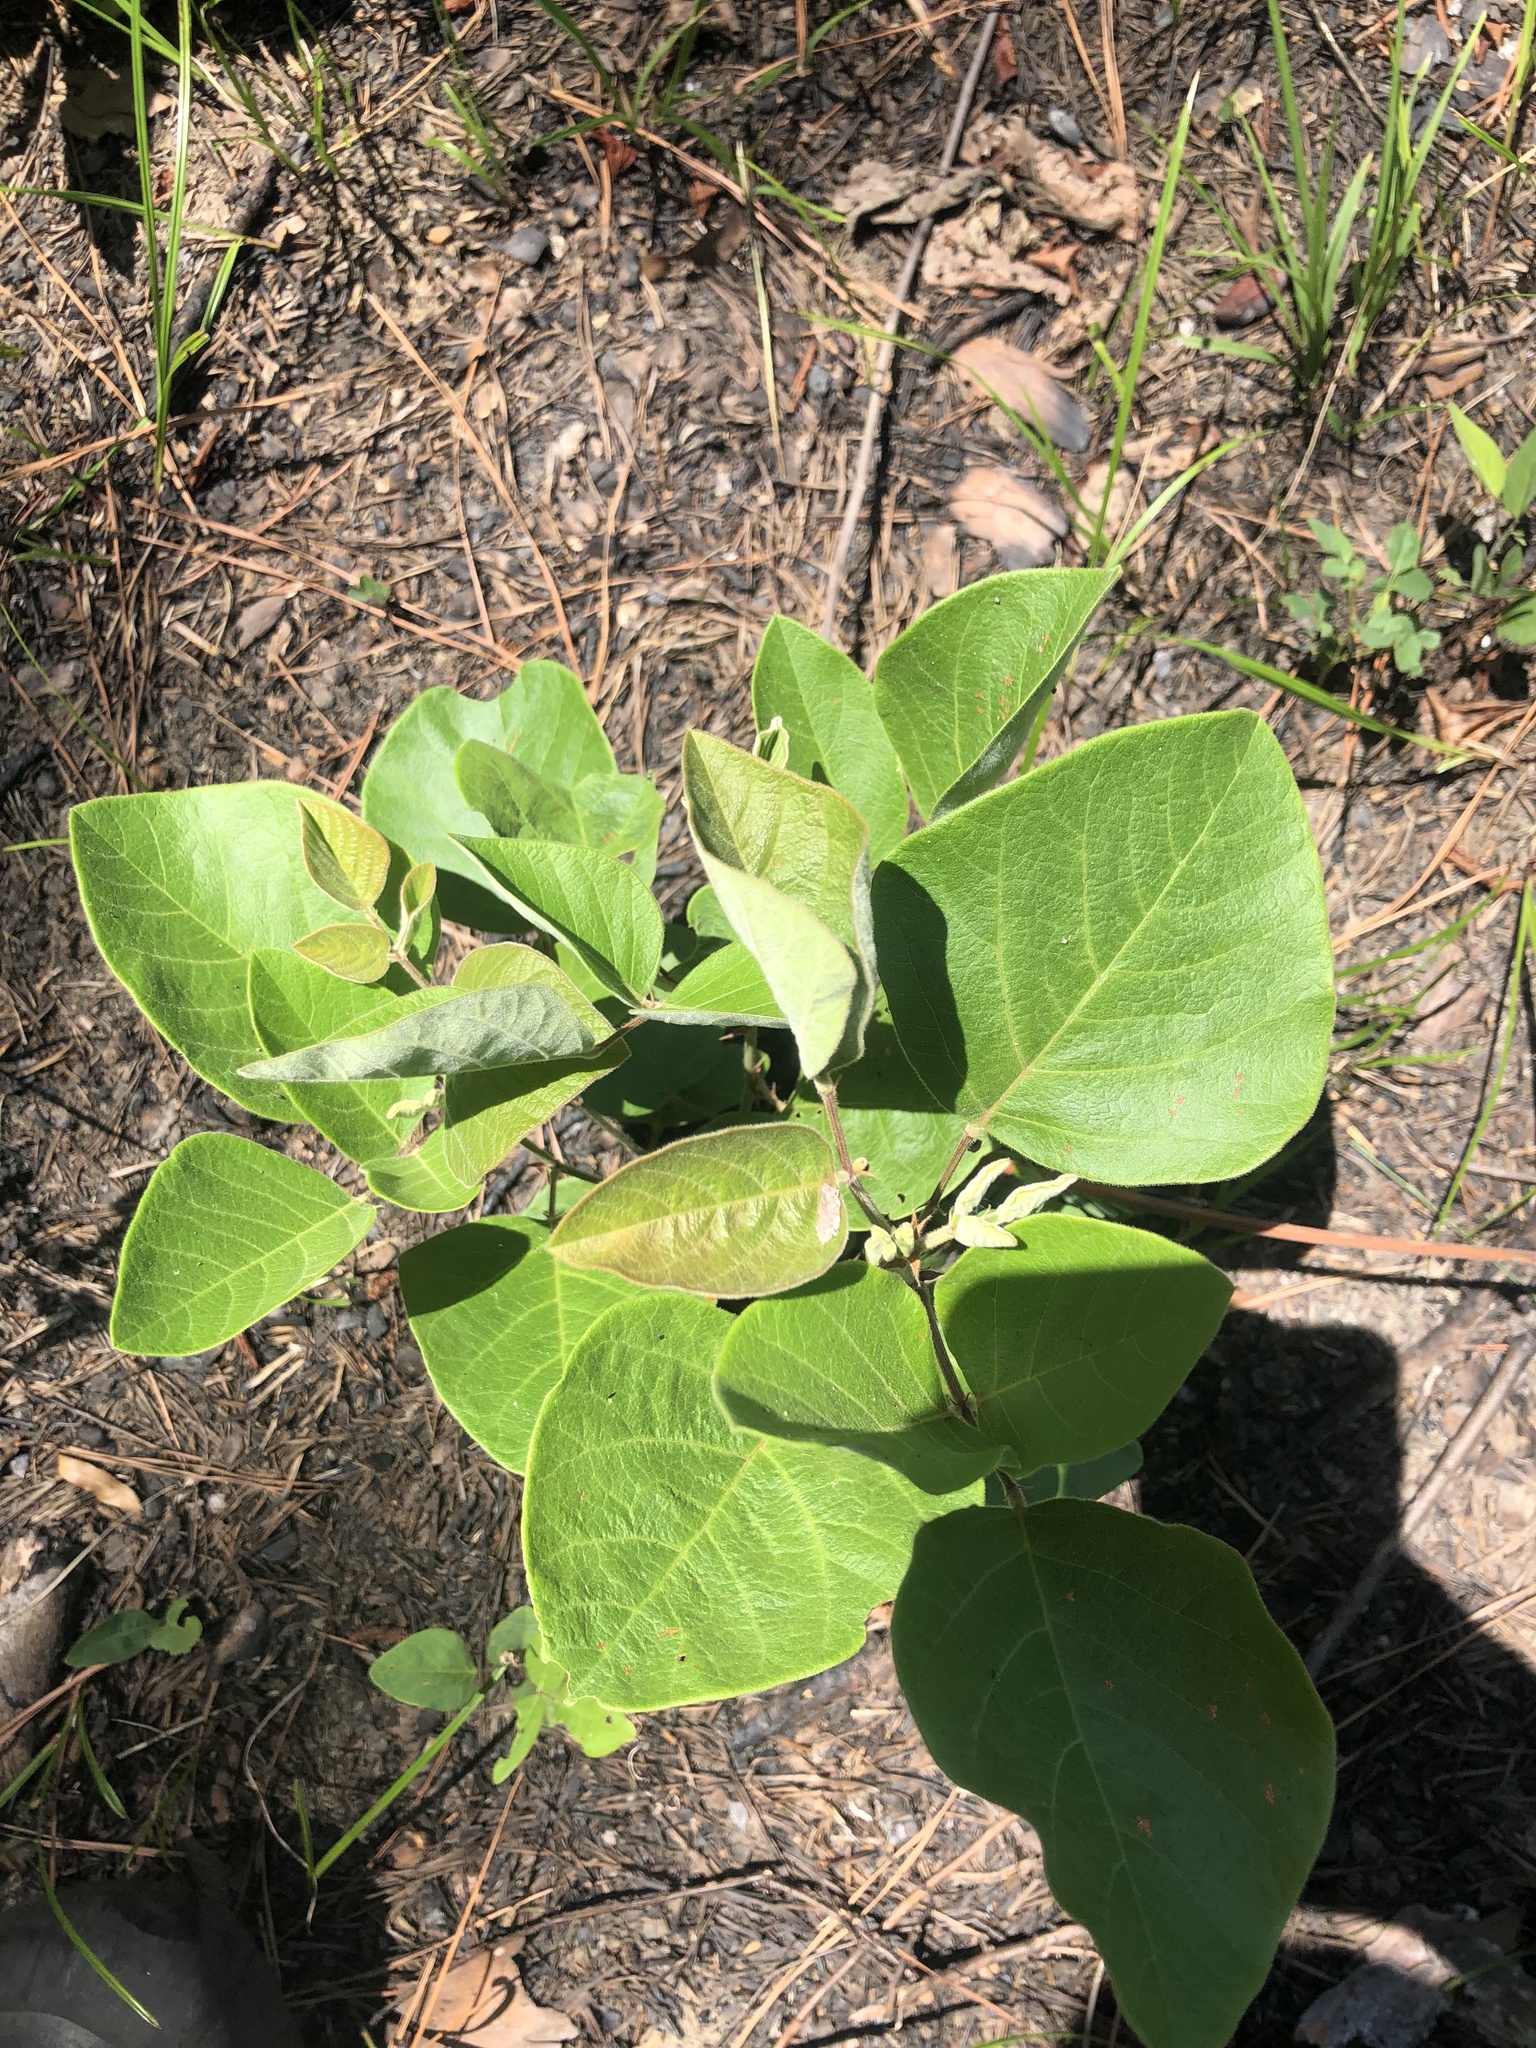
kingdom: Plantae
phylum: Tracheophyta
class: Magnoliopsida
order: Fabales
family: Fabaceae
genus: Desmodium
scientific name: Desmodium viridiflorum
